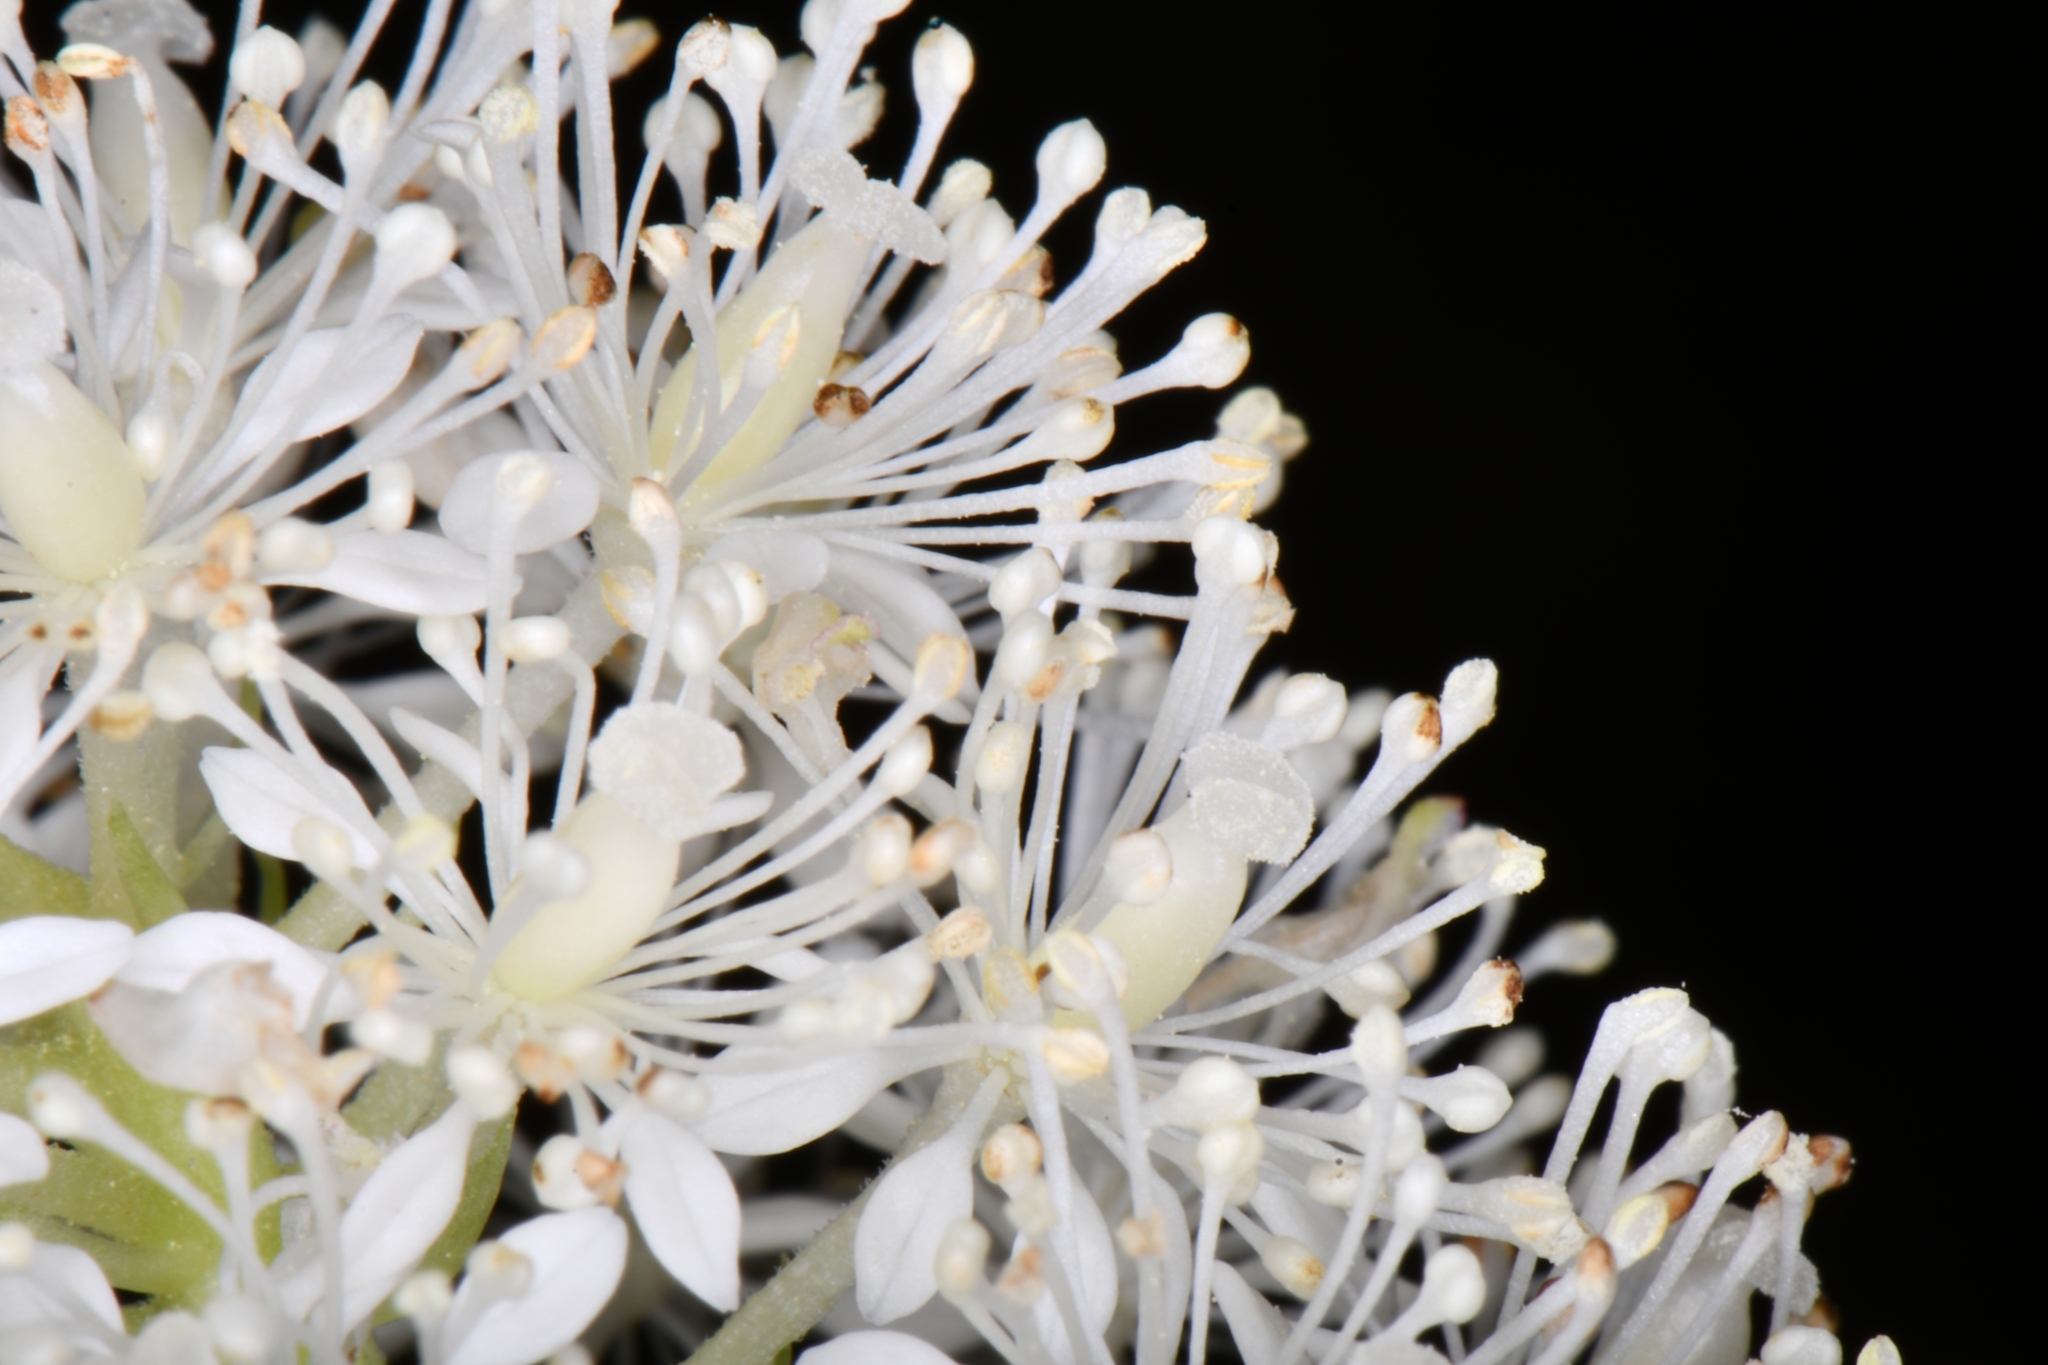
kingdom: Plantae
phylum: Tracheophyta
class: Magnoliopsida
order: Ranunculales
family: Ranunculaceae
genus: Actaea
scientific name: Actaea rubra
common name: Red baneberry
